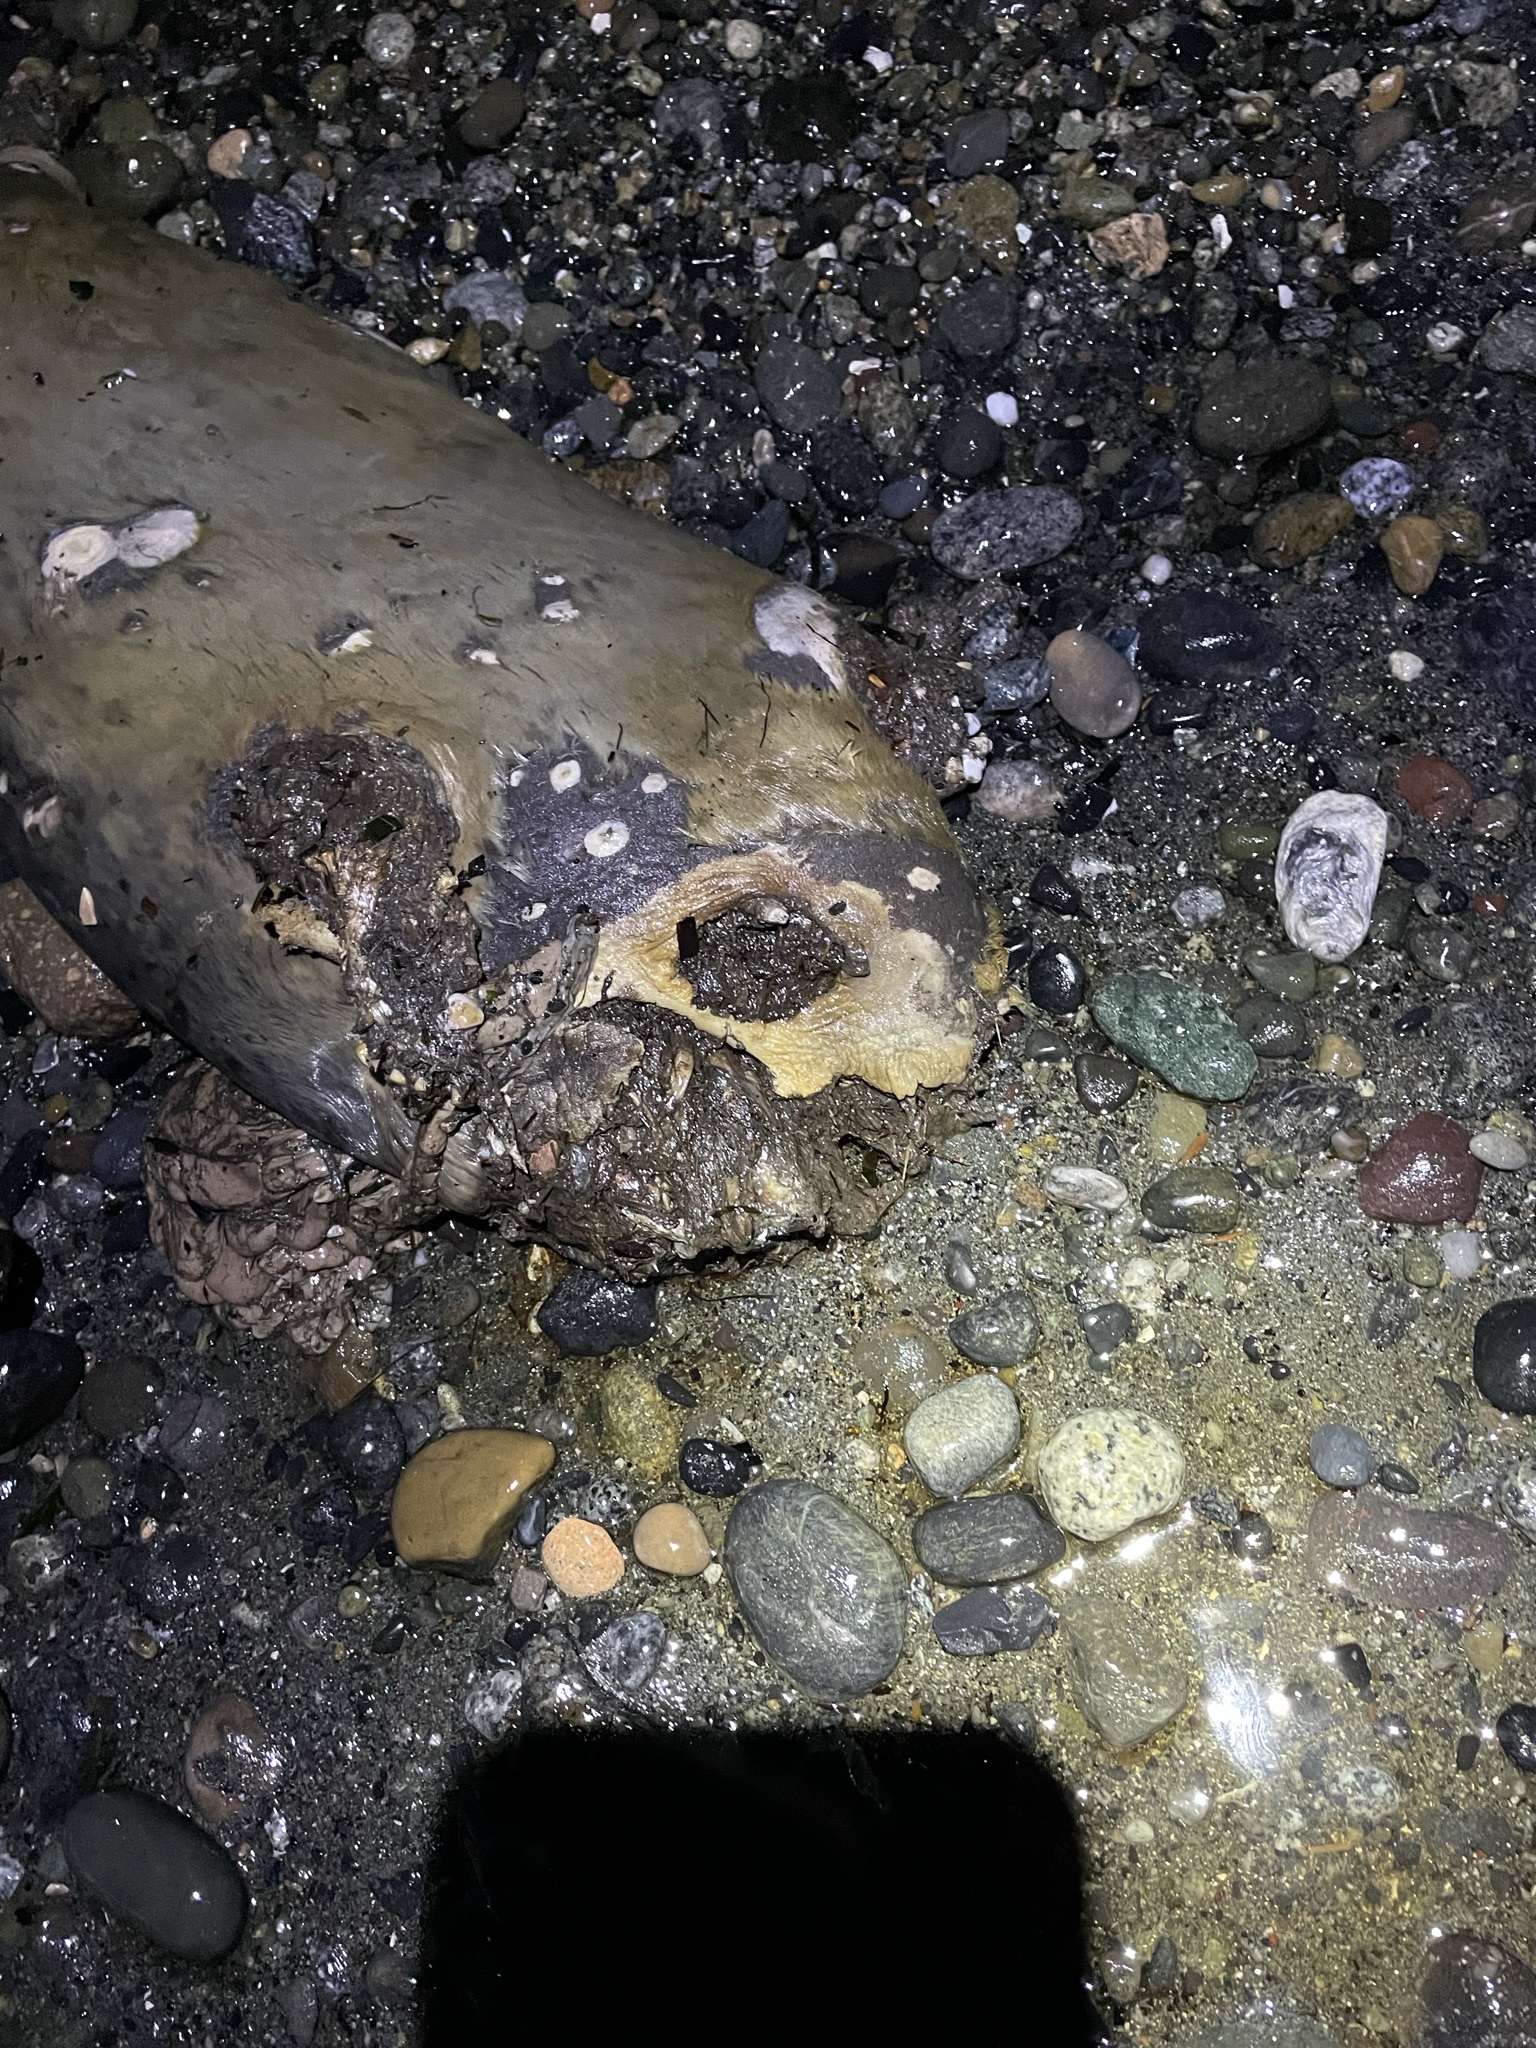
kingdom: Animalia
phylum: Chordata
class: Mammalia
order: Carnivora
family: Phocidae
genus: Phoca
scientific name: Phoca vitulina
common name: Harbor seal
